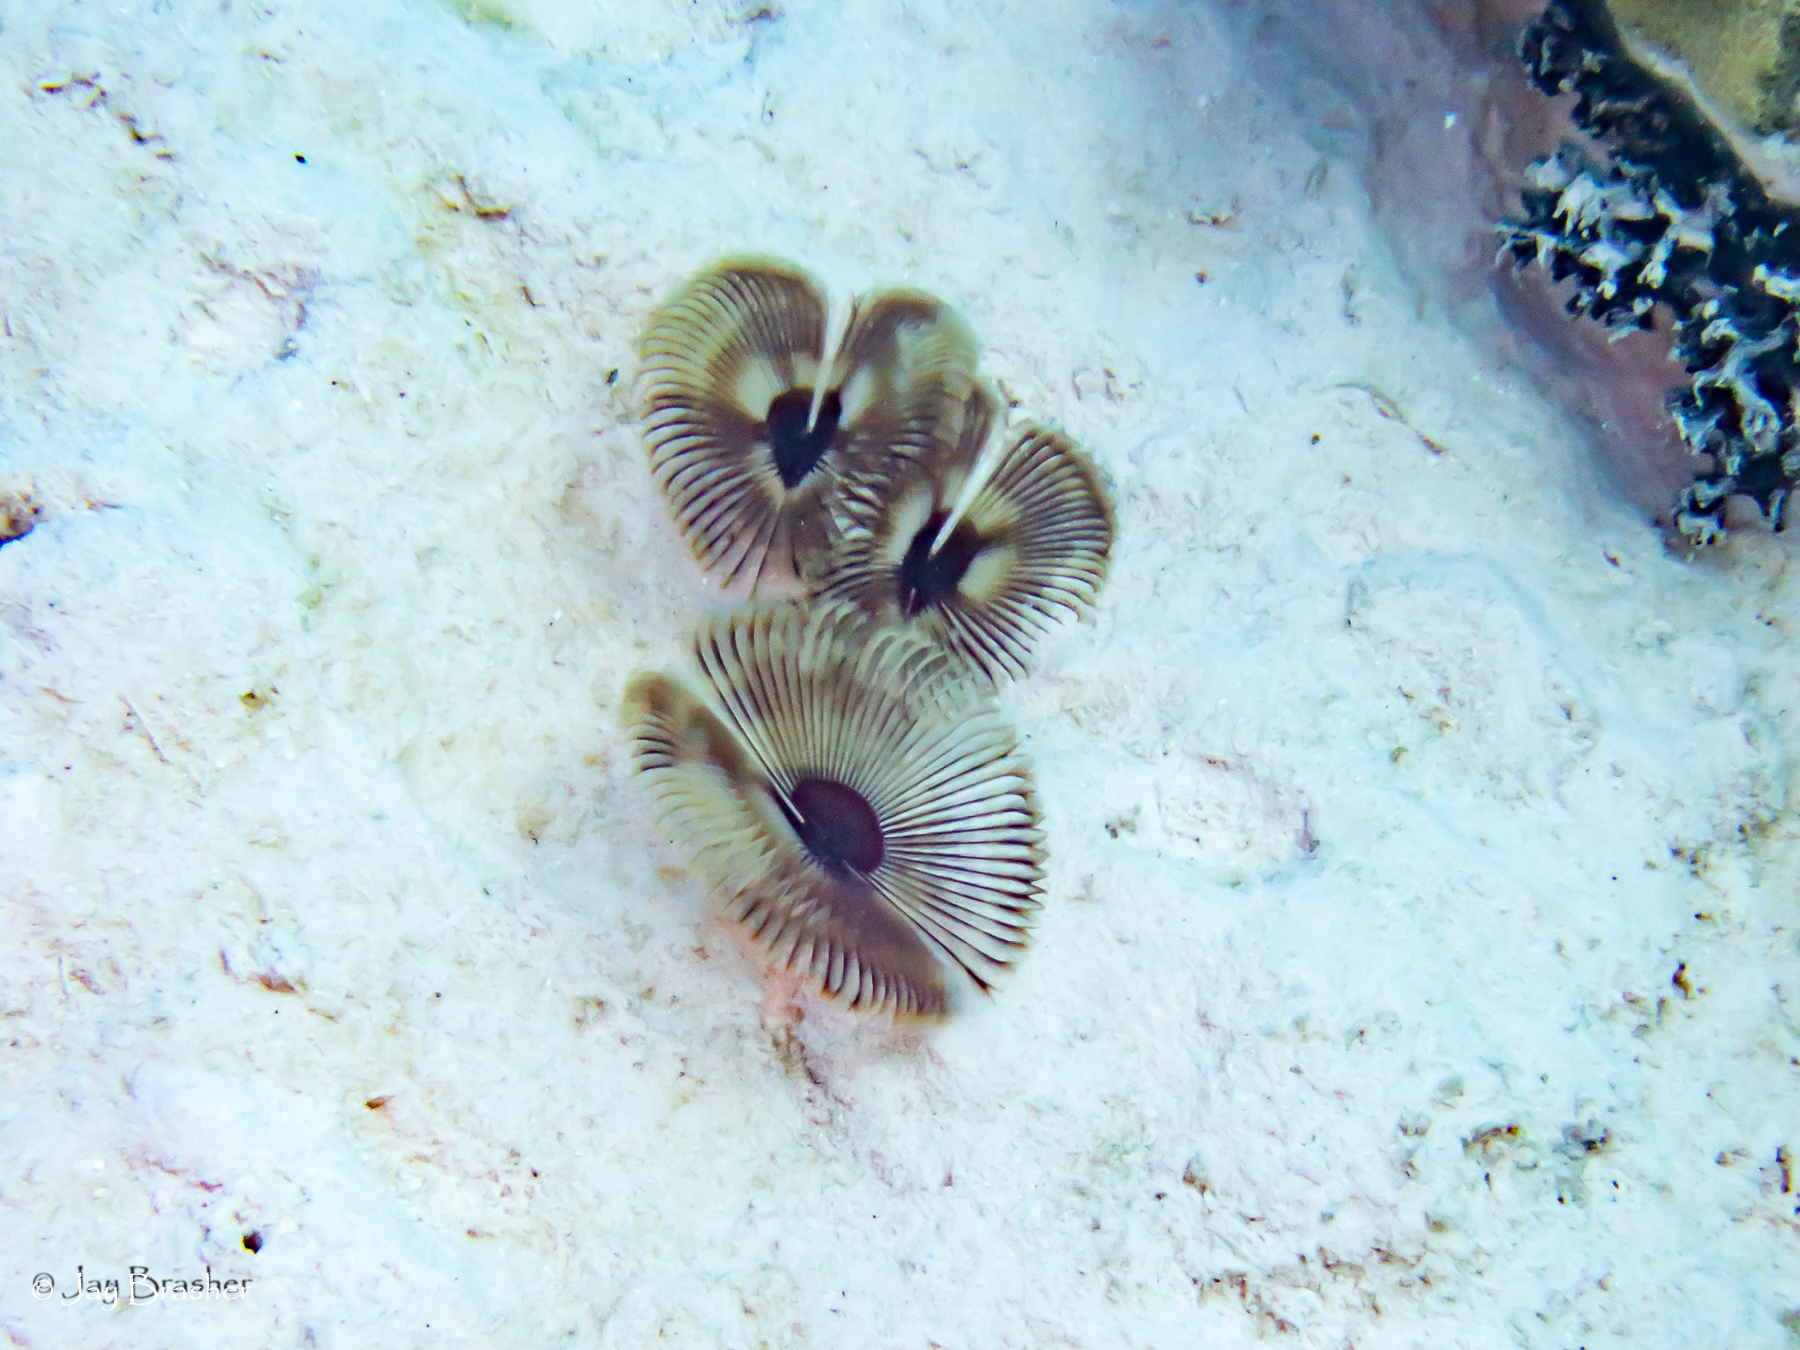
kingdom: Animalia
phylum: Annelida
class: Polychaeta
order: Sabellida
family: Sabellidae
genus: Anamobaea
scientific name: Anamobaea orstedii
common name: Split-crown feather duster
